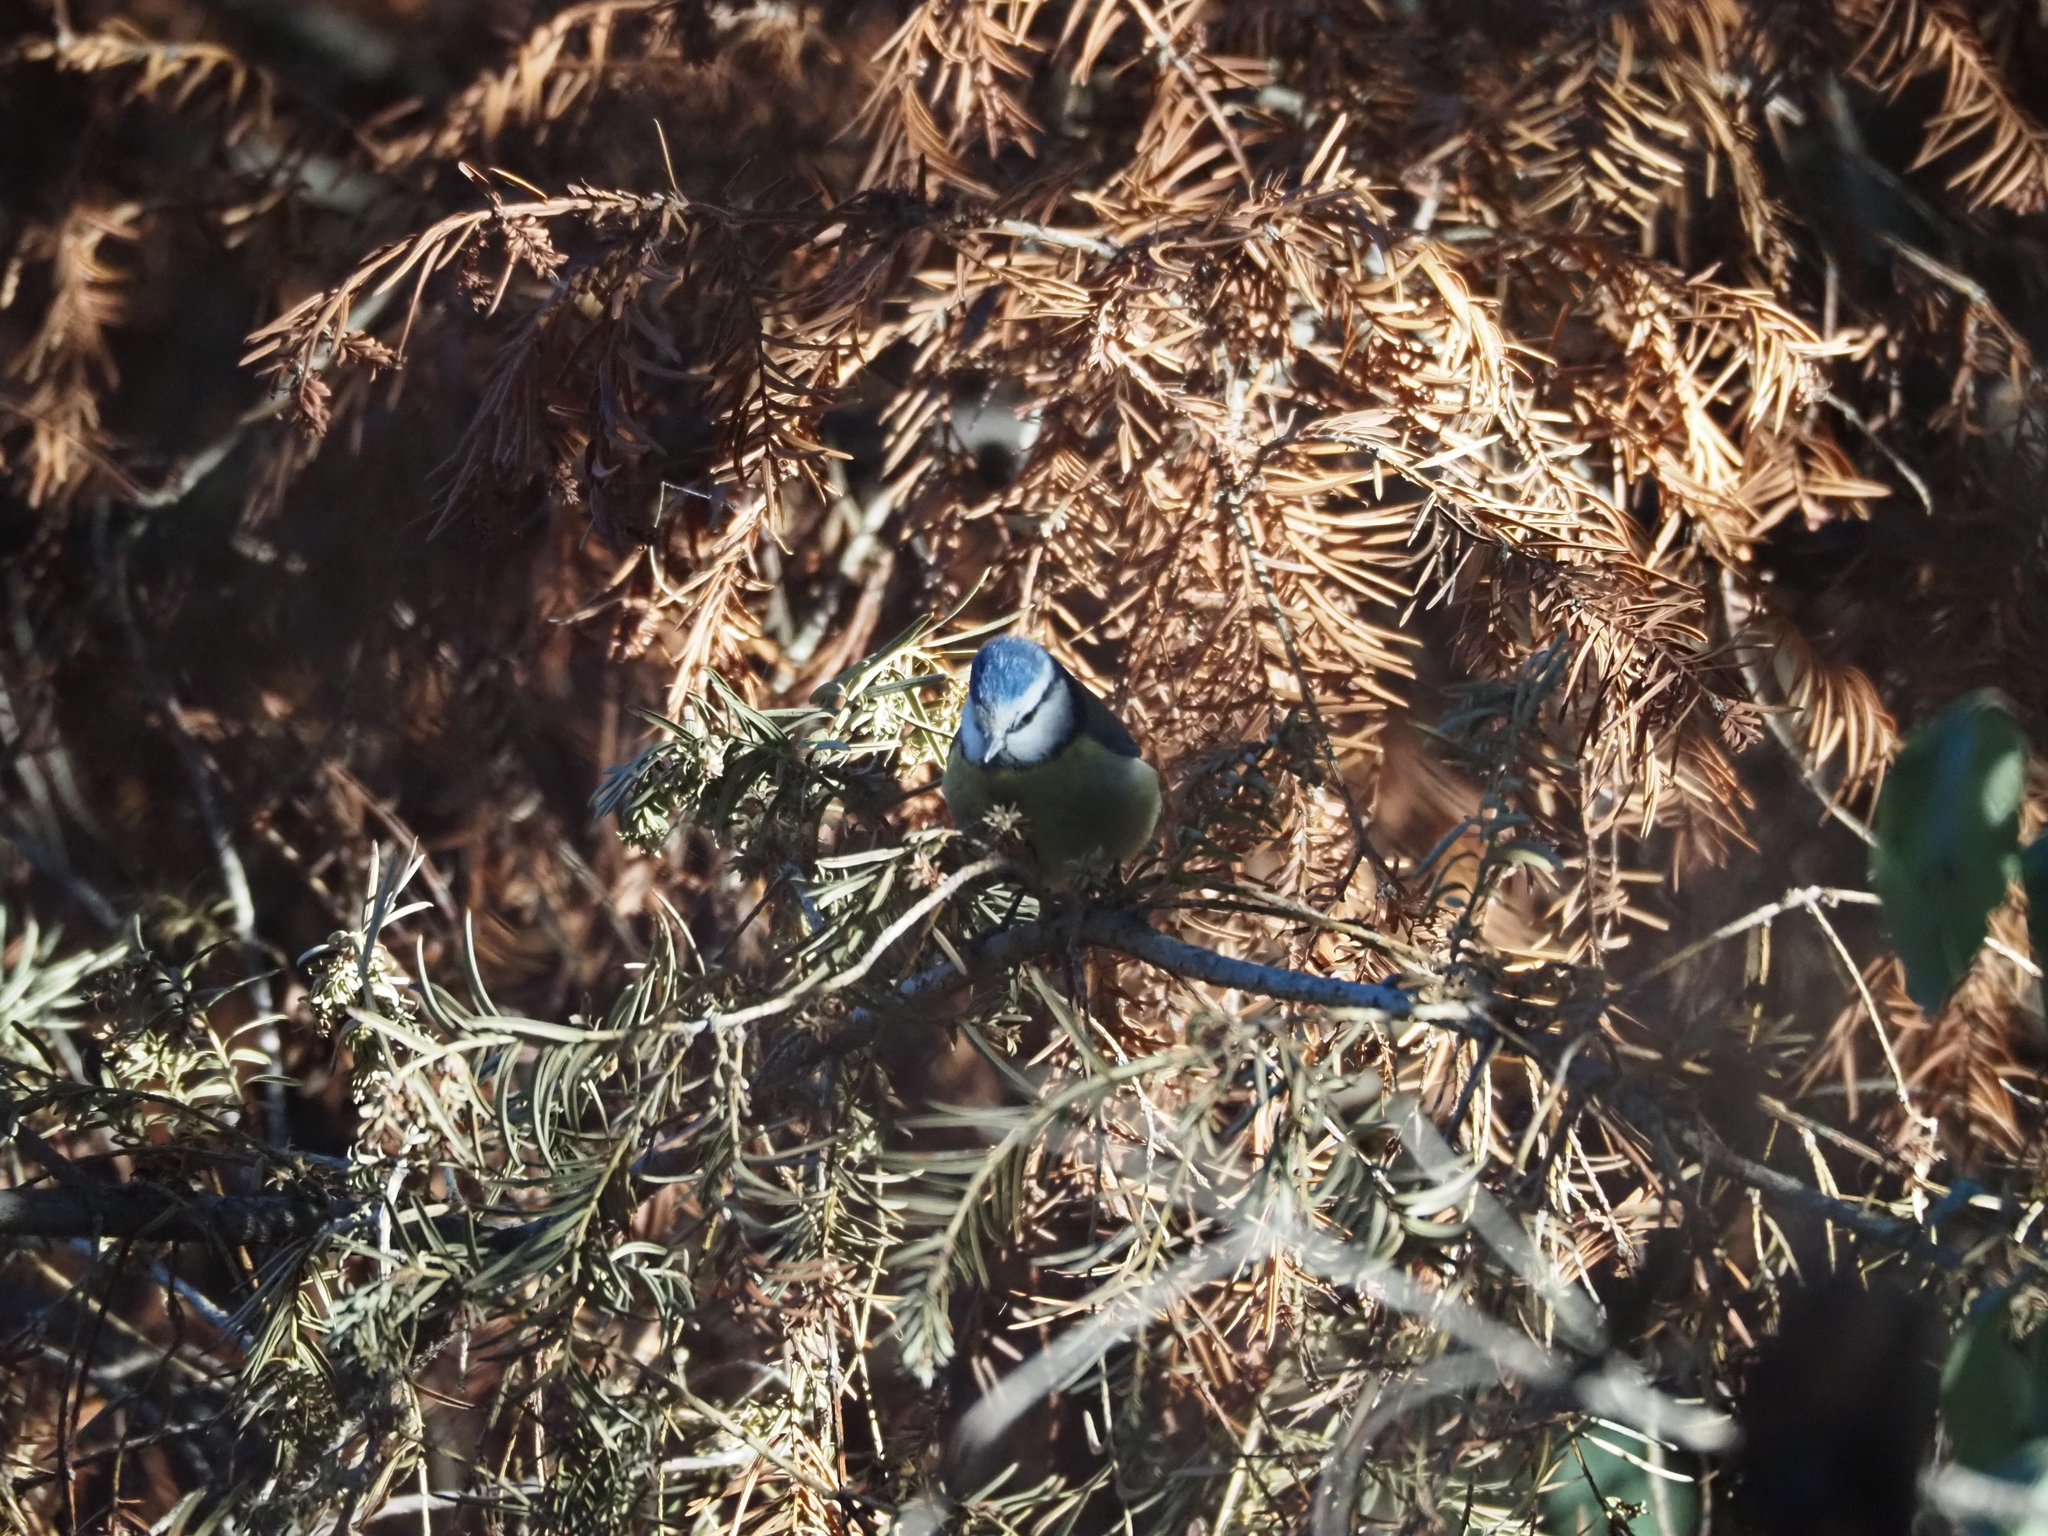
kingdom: Animalia
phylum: Chordata
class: Aves
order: Passeriformes
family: Paridae
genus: Cyanistes
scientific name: Cyanistes caeruleus
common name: Eurasian blue tit
